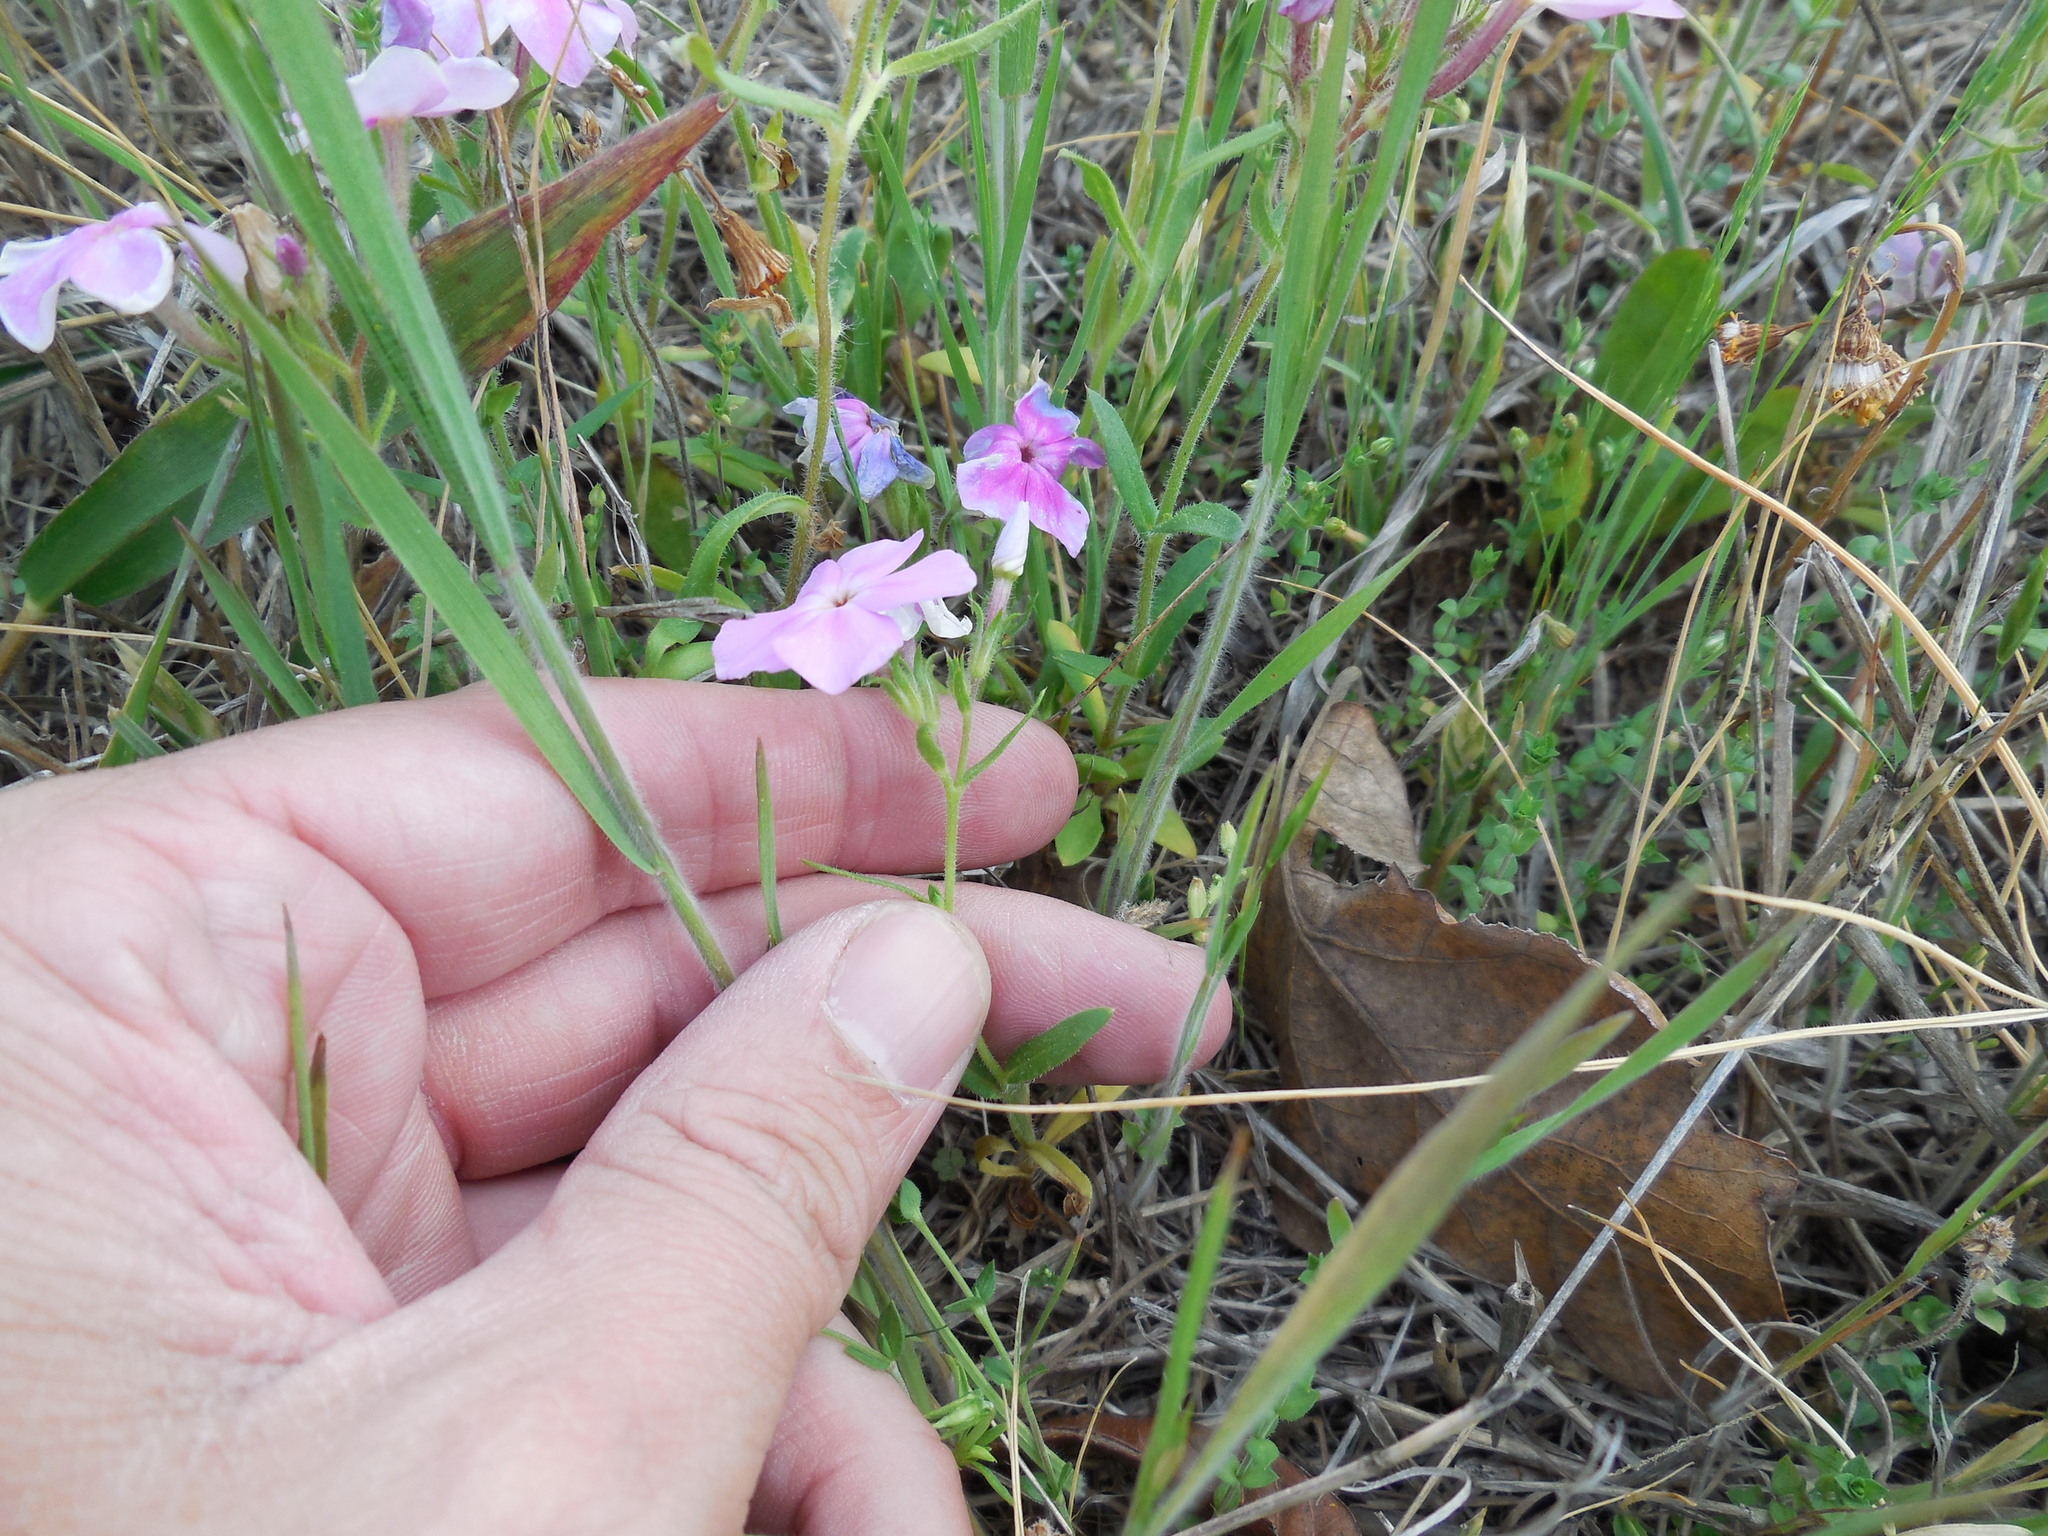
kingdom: Plantae
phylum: Tracheophyta
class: Magnoliopsida
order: Ericales
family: Polemoniaceae
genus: Phlox
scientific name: Phlox drummondii
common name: Drummond's phlox
